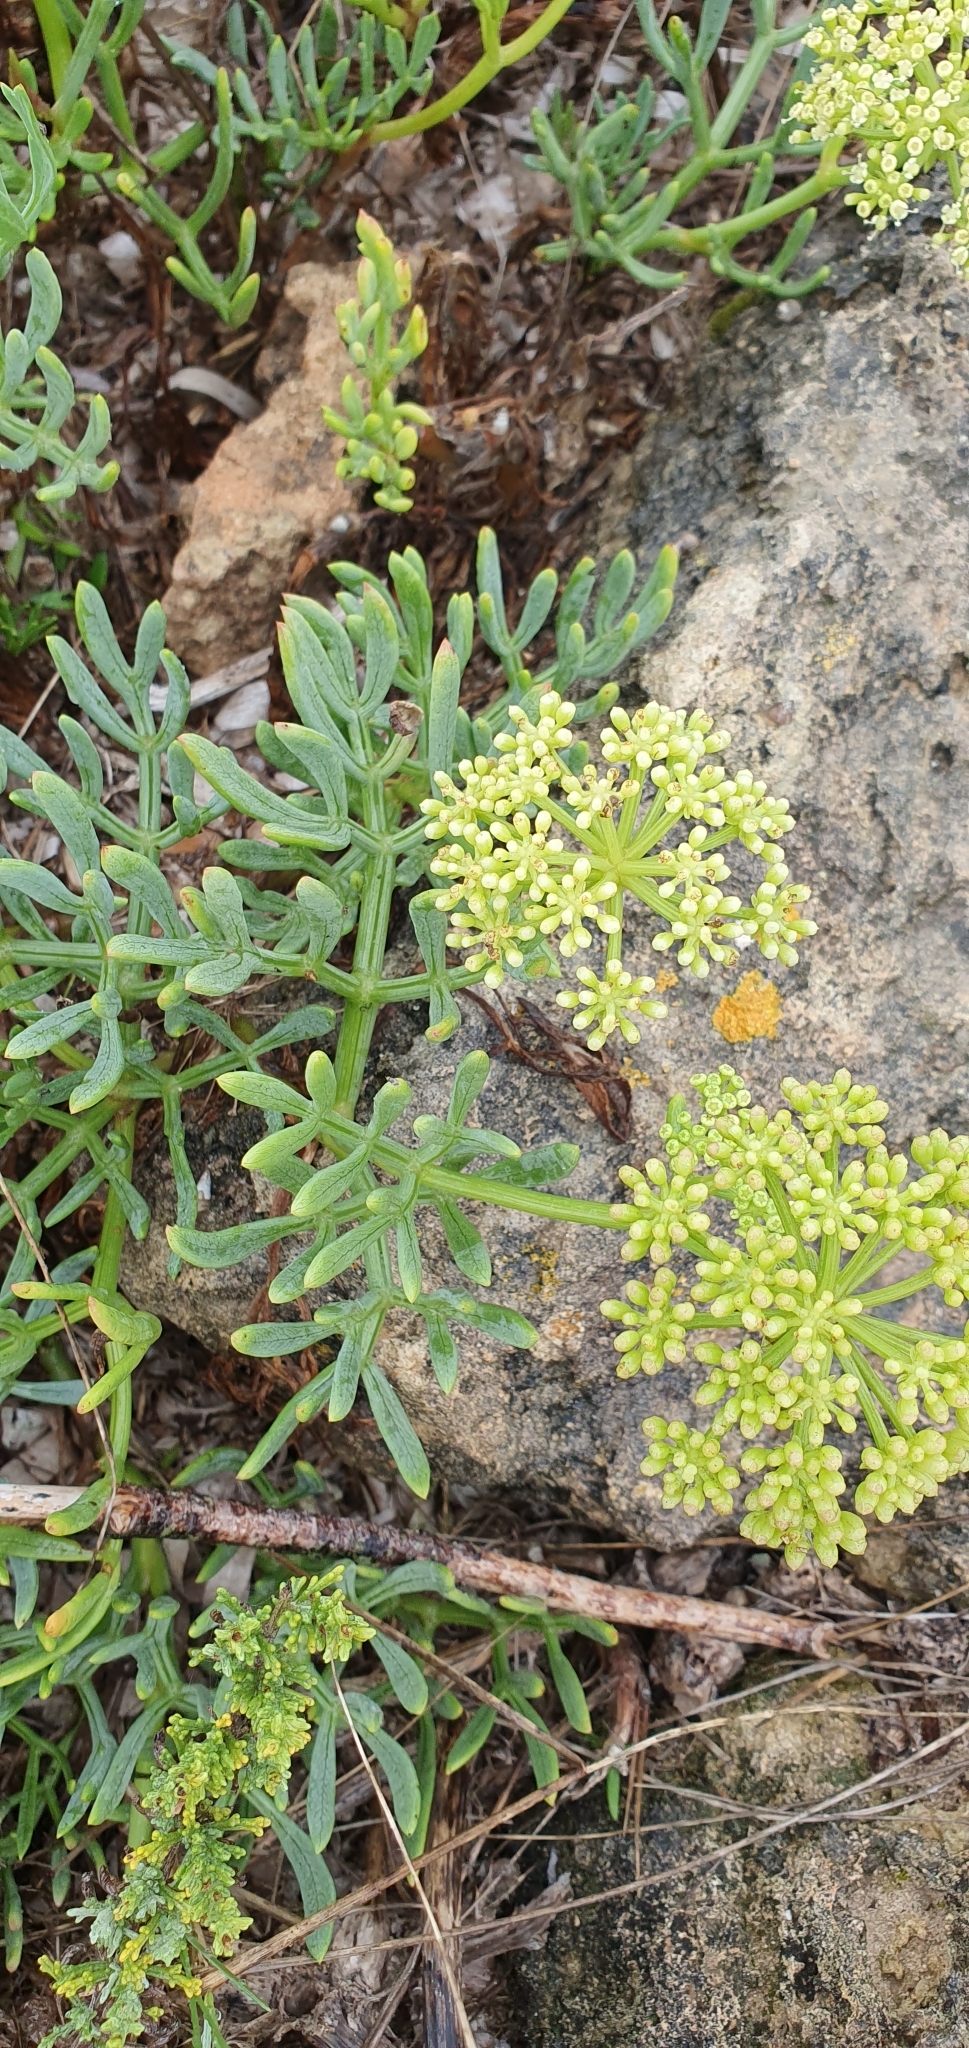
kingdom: Plantae
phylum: Tracheophyta
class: Magnoliopsida
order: Apiales
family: Apiaceae
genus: Crithmum
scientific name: Crithmum maritimum
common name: Rock samphire
